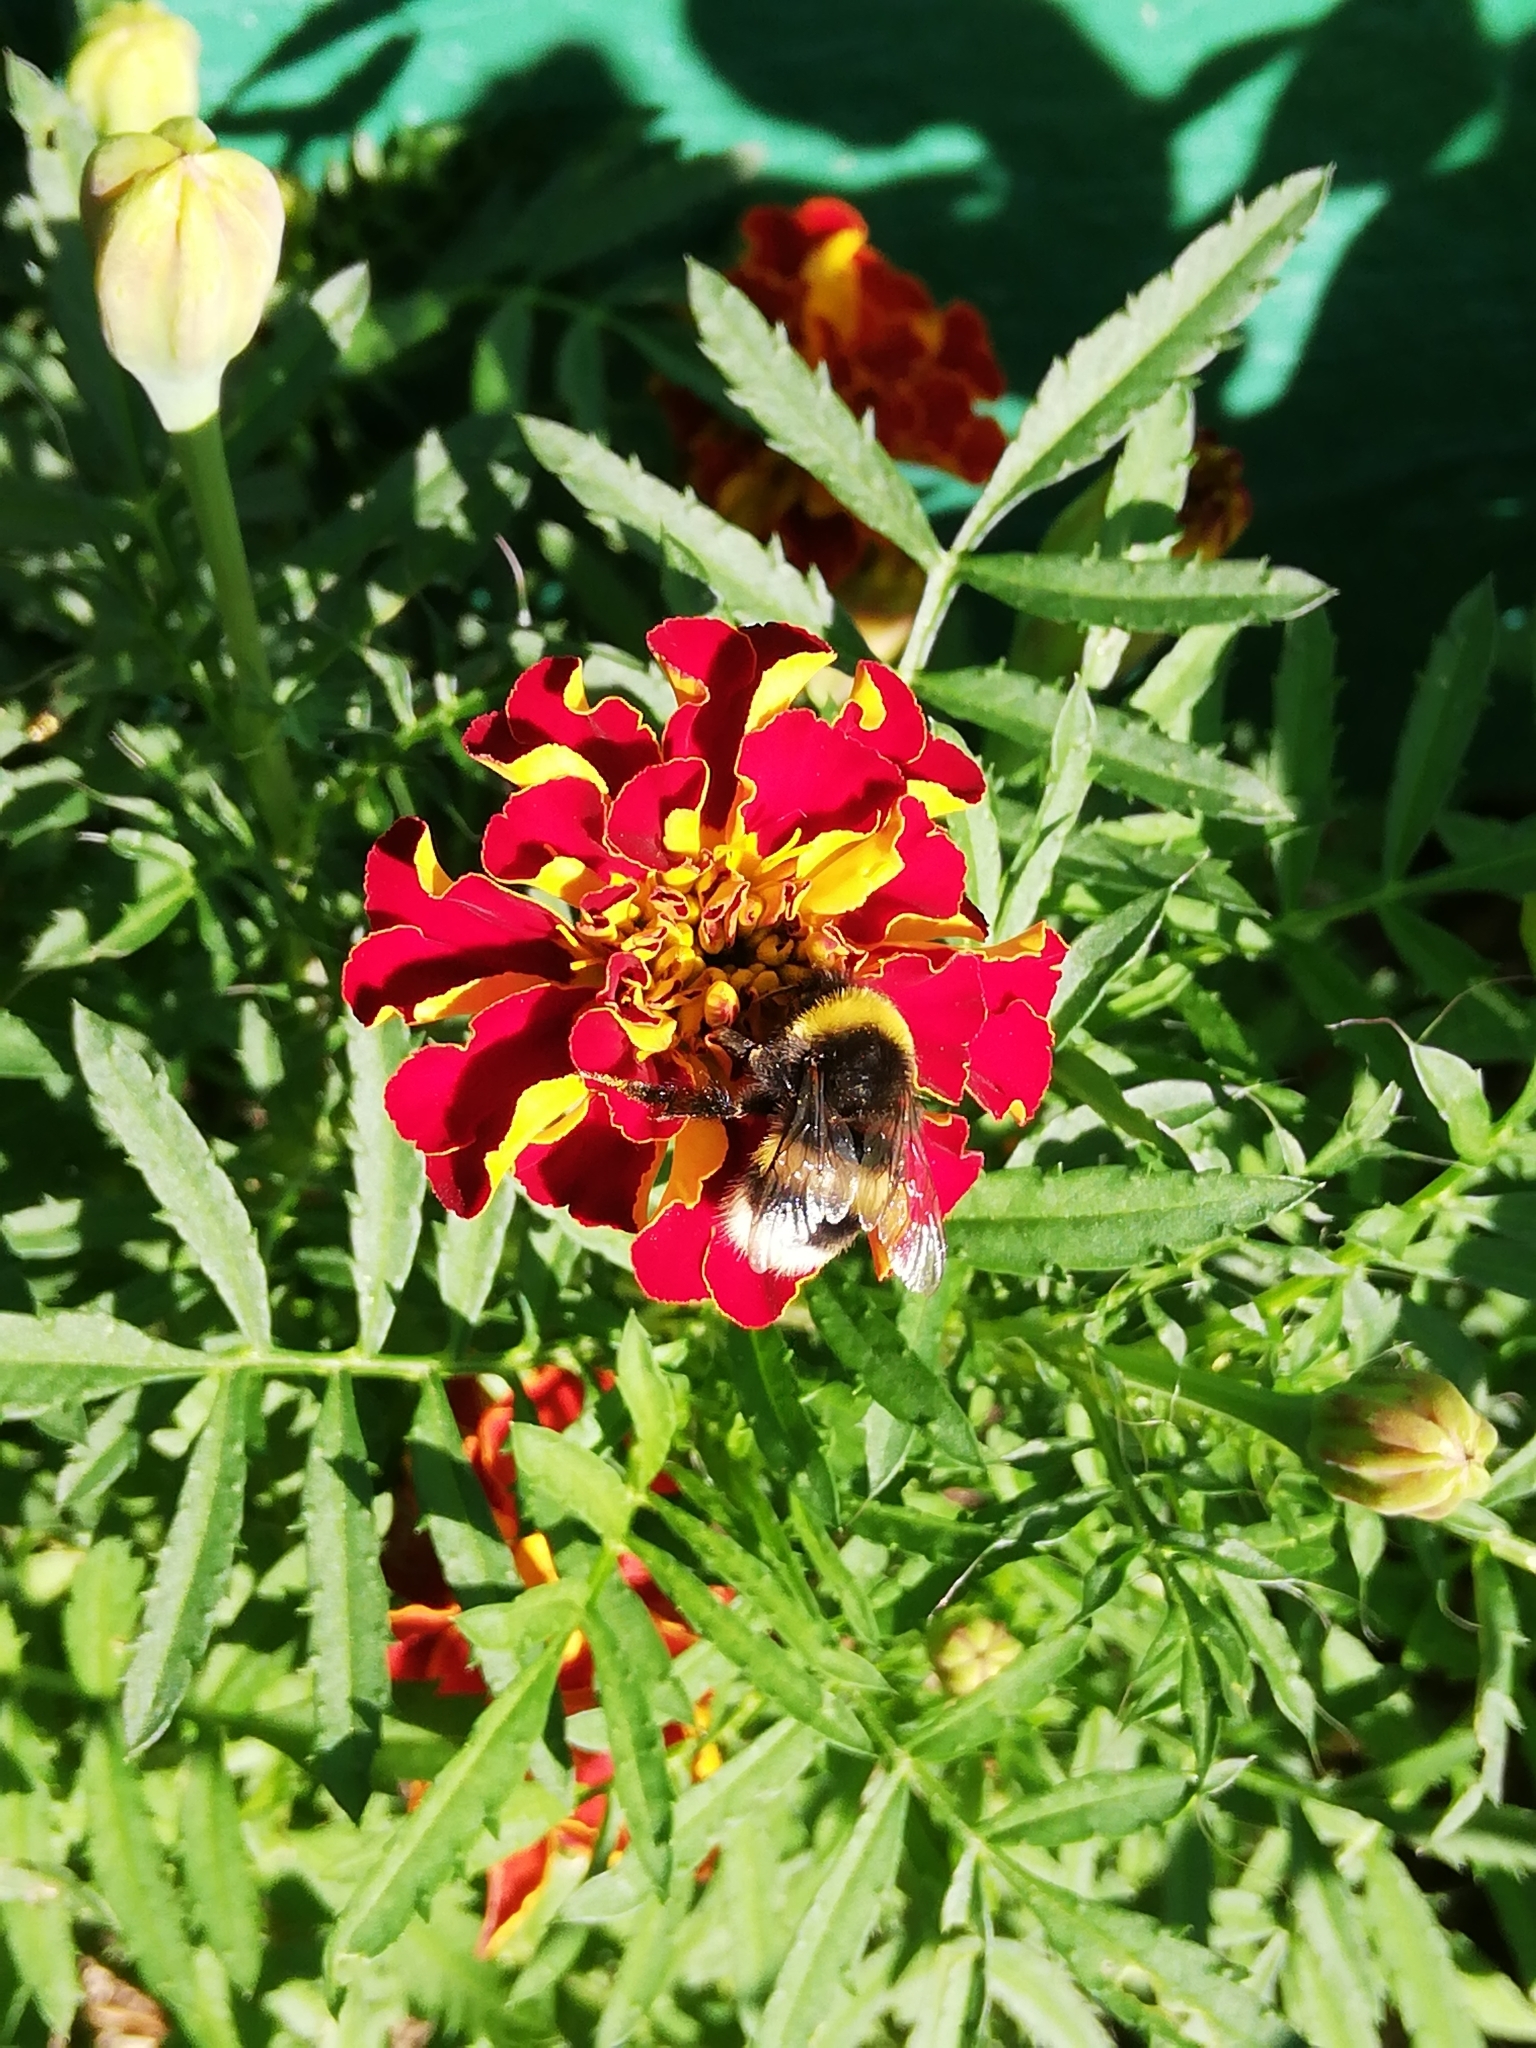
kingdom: Animalia
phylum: Arthropoda
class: Insecta
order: Hymenoptera
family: Apidae
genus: Bombus
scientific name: Bombus lucorum
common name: White-tailed bumblebee
